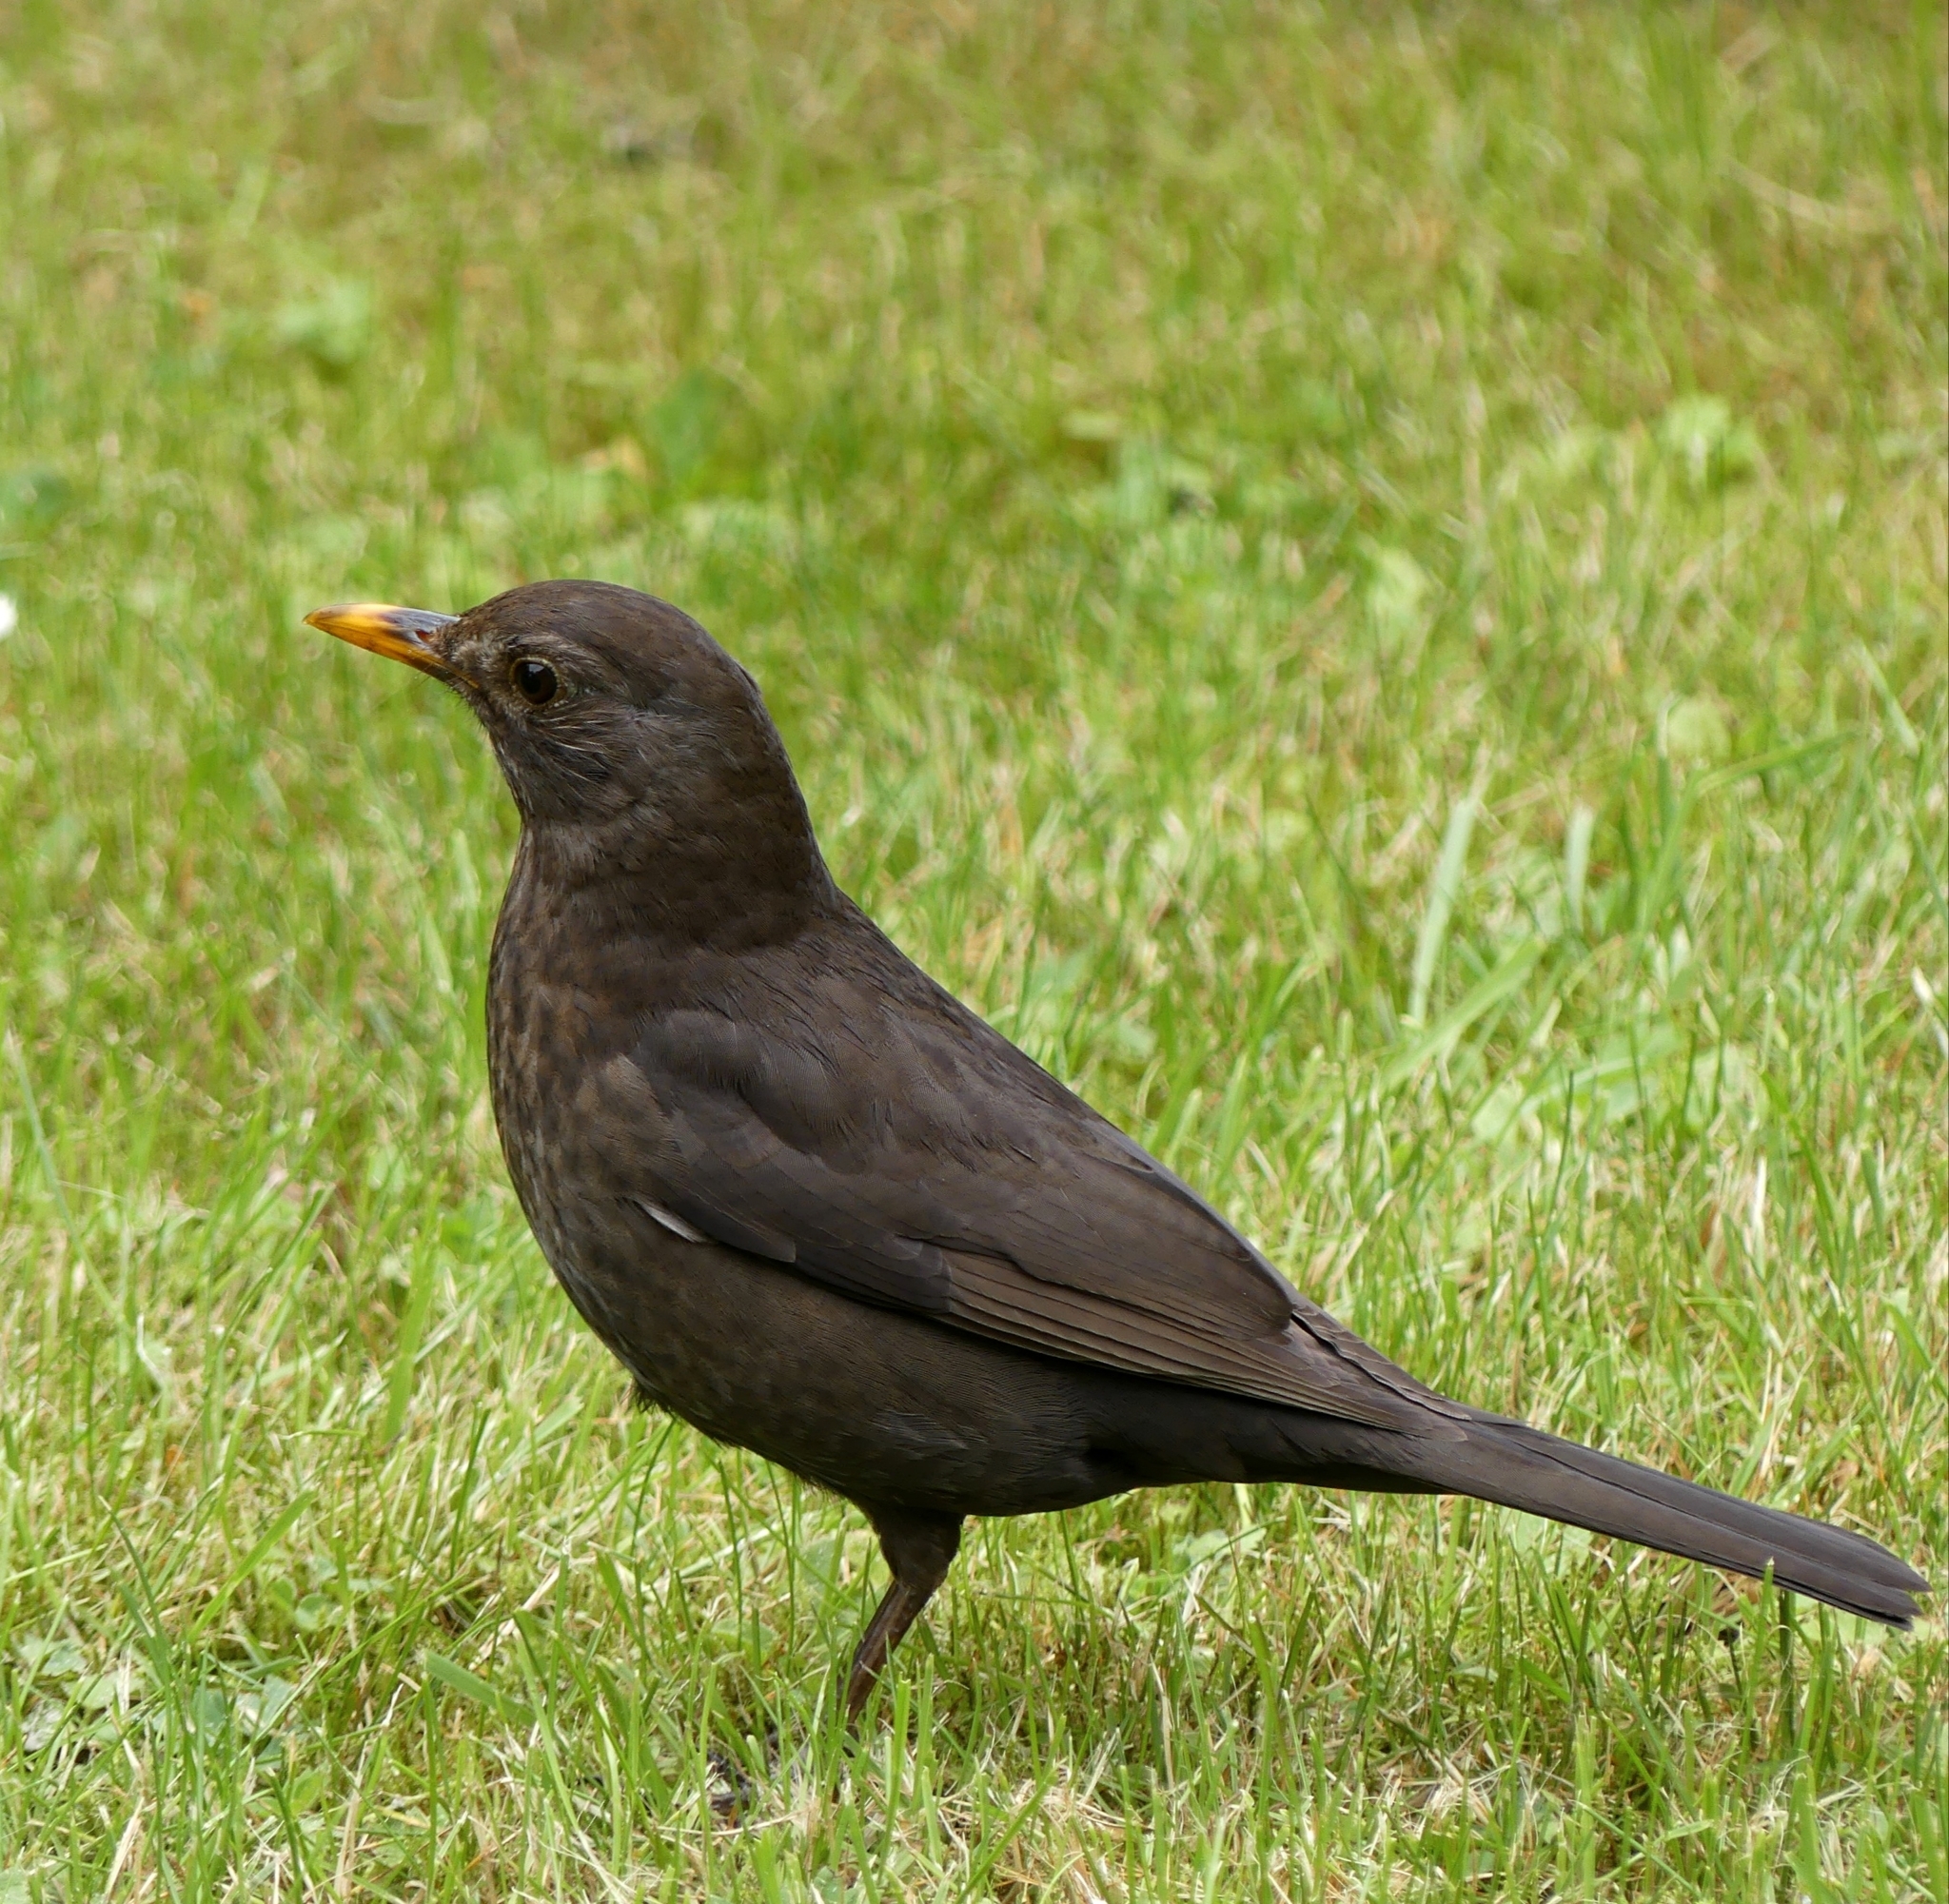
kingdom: Animalia
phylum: Chordata
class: Aves
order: Passeriformes
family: Turdidae
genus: Turdus
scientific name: Turdus merula
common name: Common blackbird
